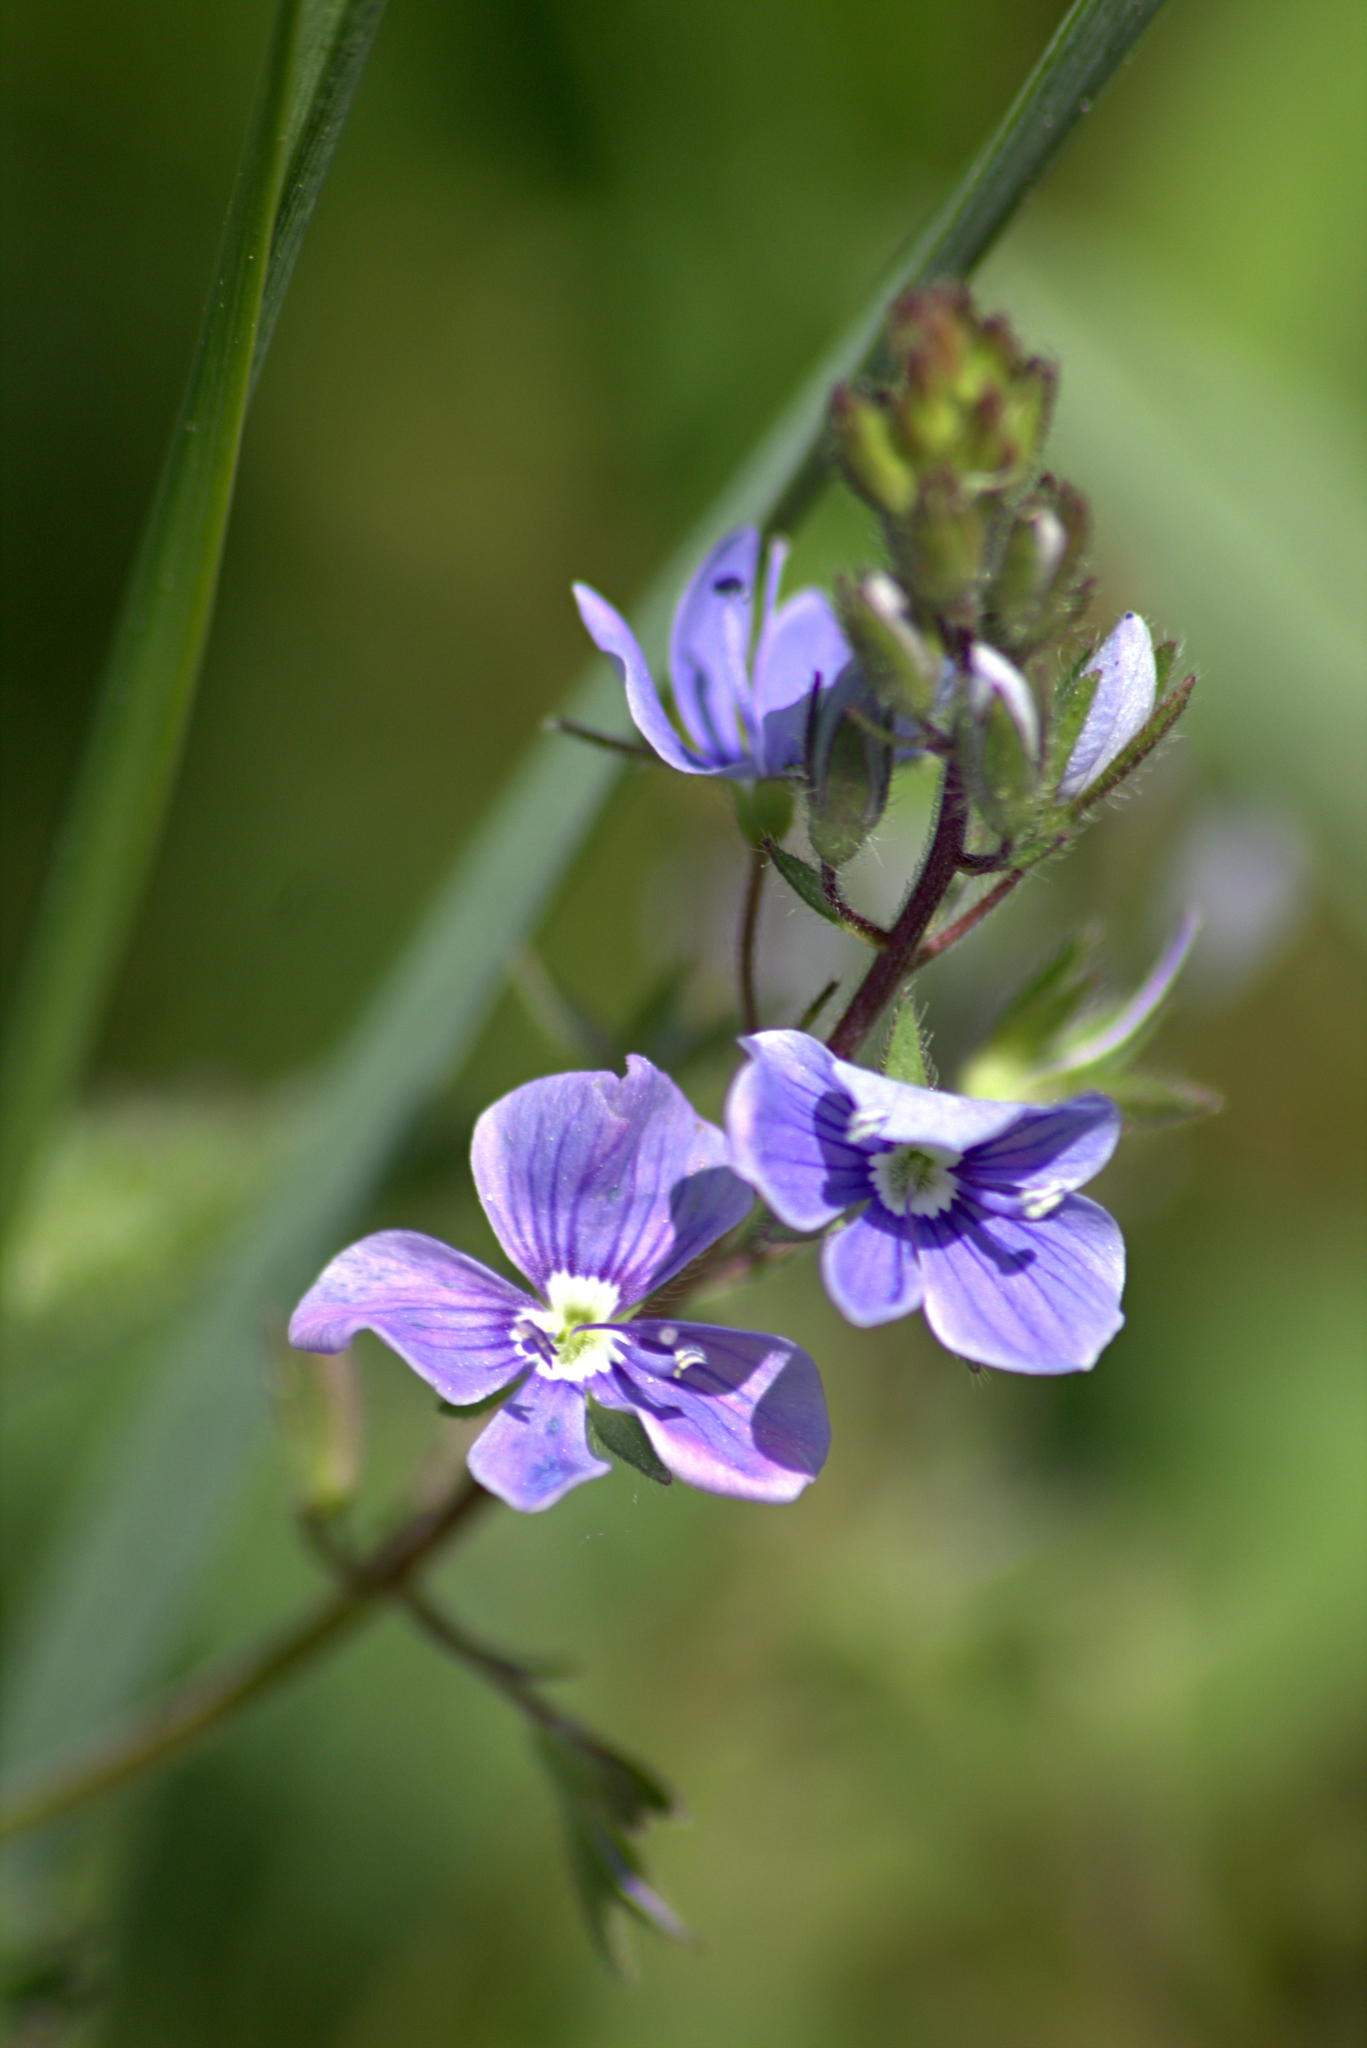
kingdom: Plantae
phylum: Tracheophyta
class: Magnoliopsida
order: Lamiales
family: Plantaginaceae
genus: Veronica
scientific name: Veronica chamaedrys
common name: Germander speedwell
